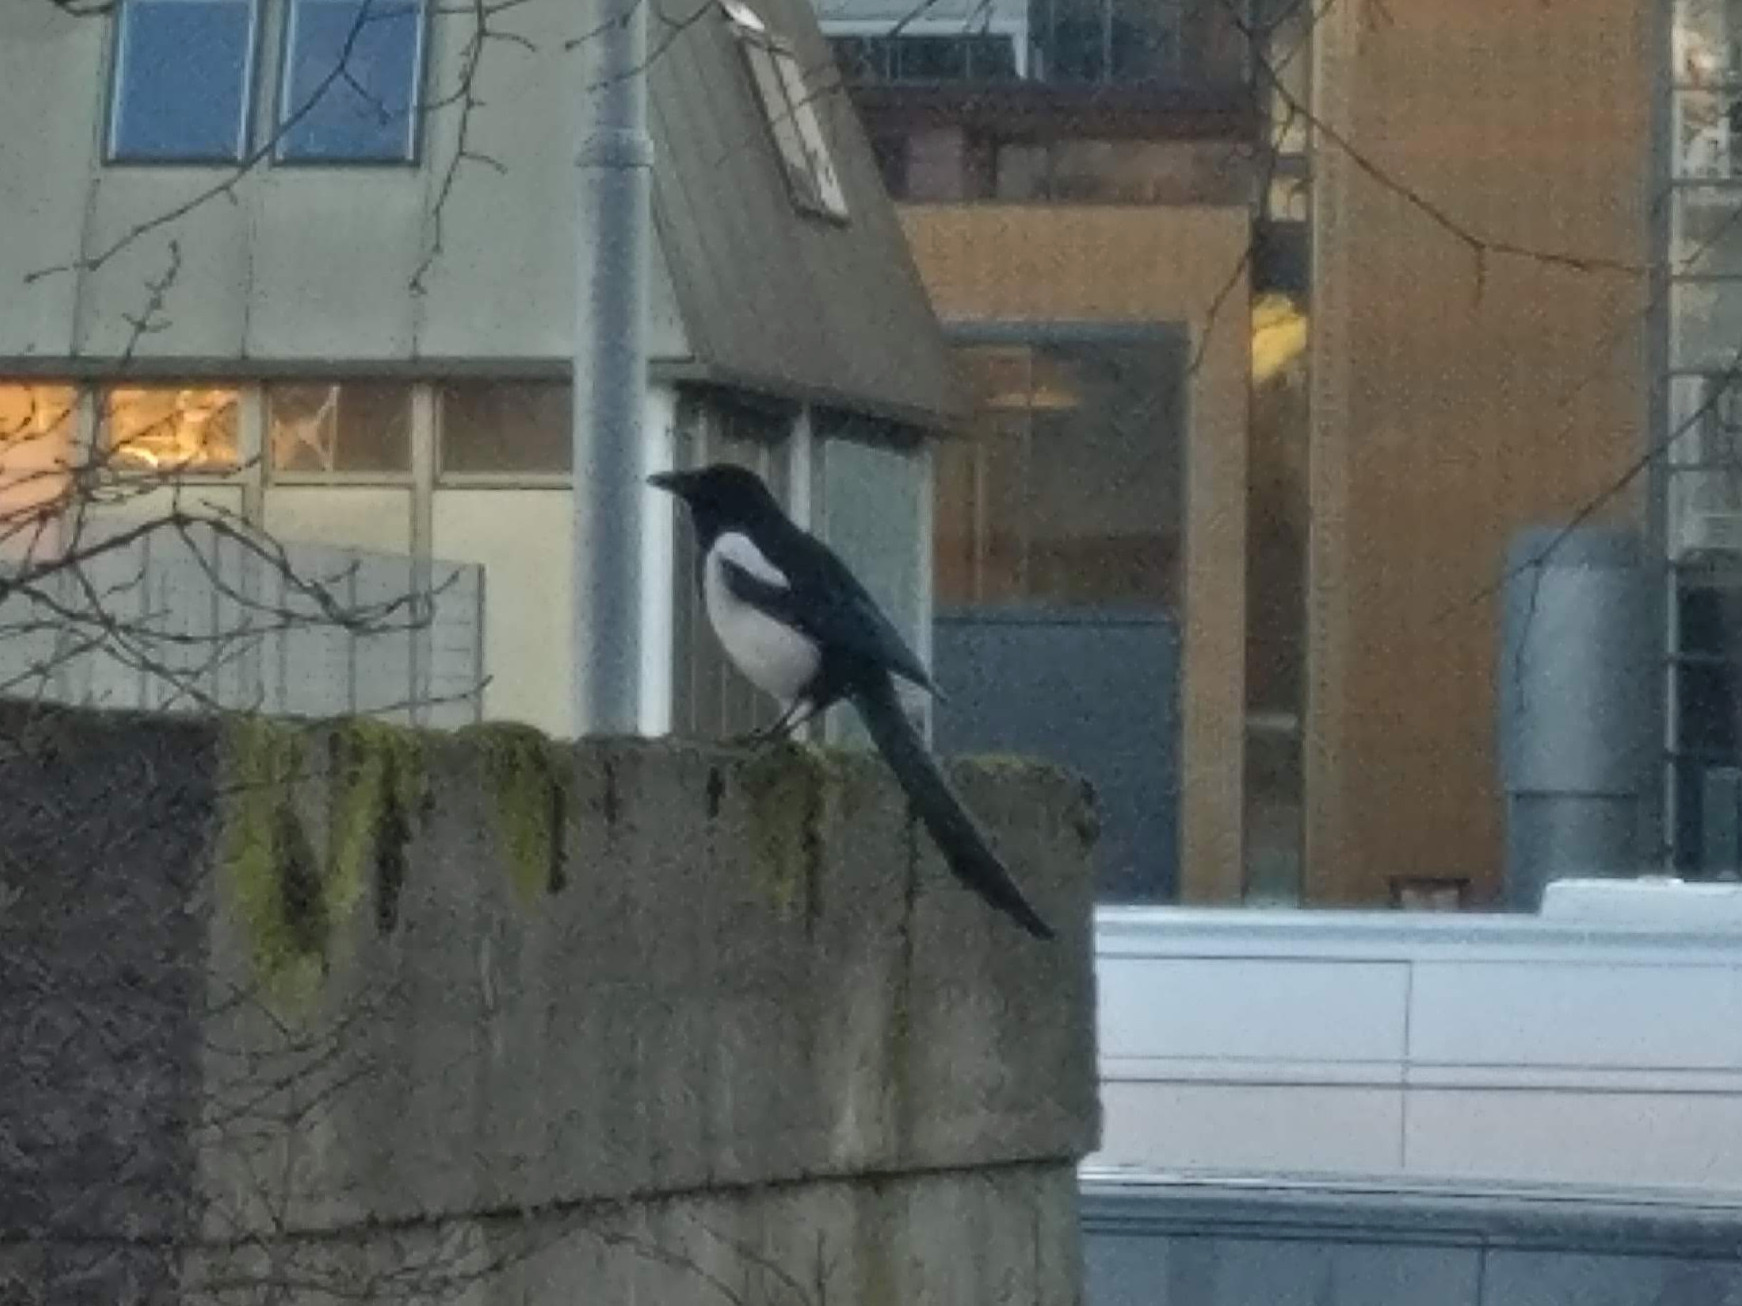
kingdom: Animalia
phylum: Chordata
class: Aves
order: Passeriformes
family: Corvidae
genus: Pica
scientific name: Pica pica
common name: Eurasian magpie
